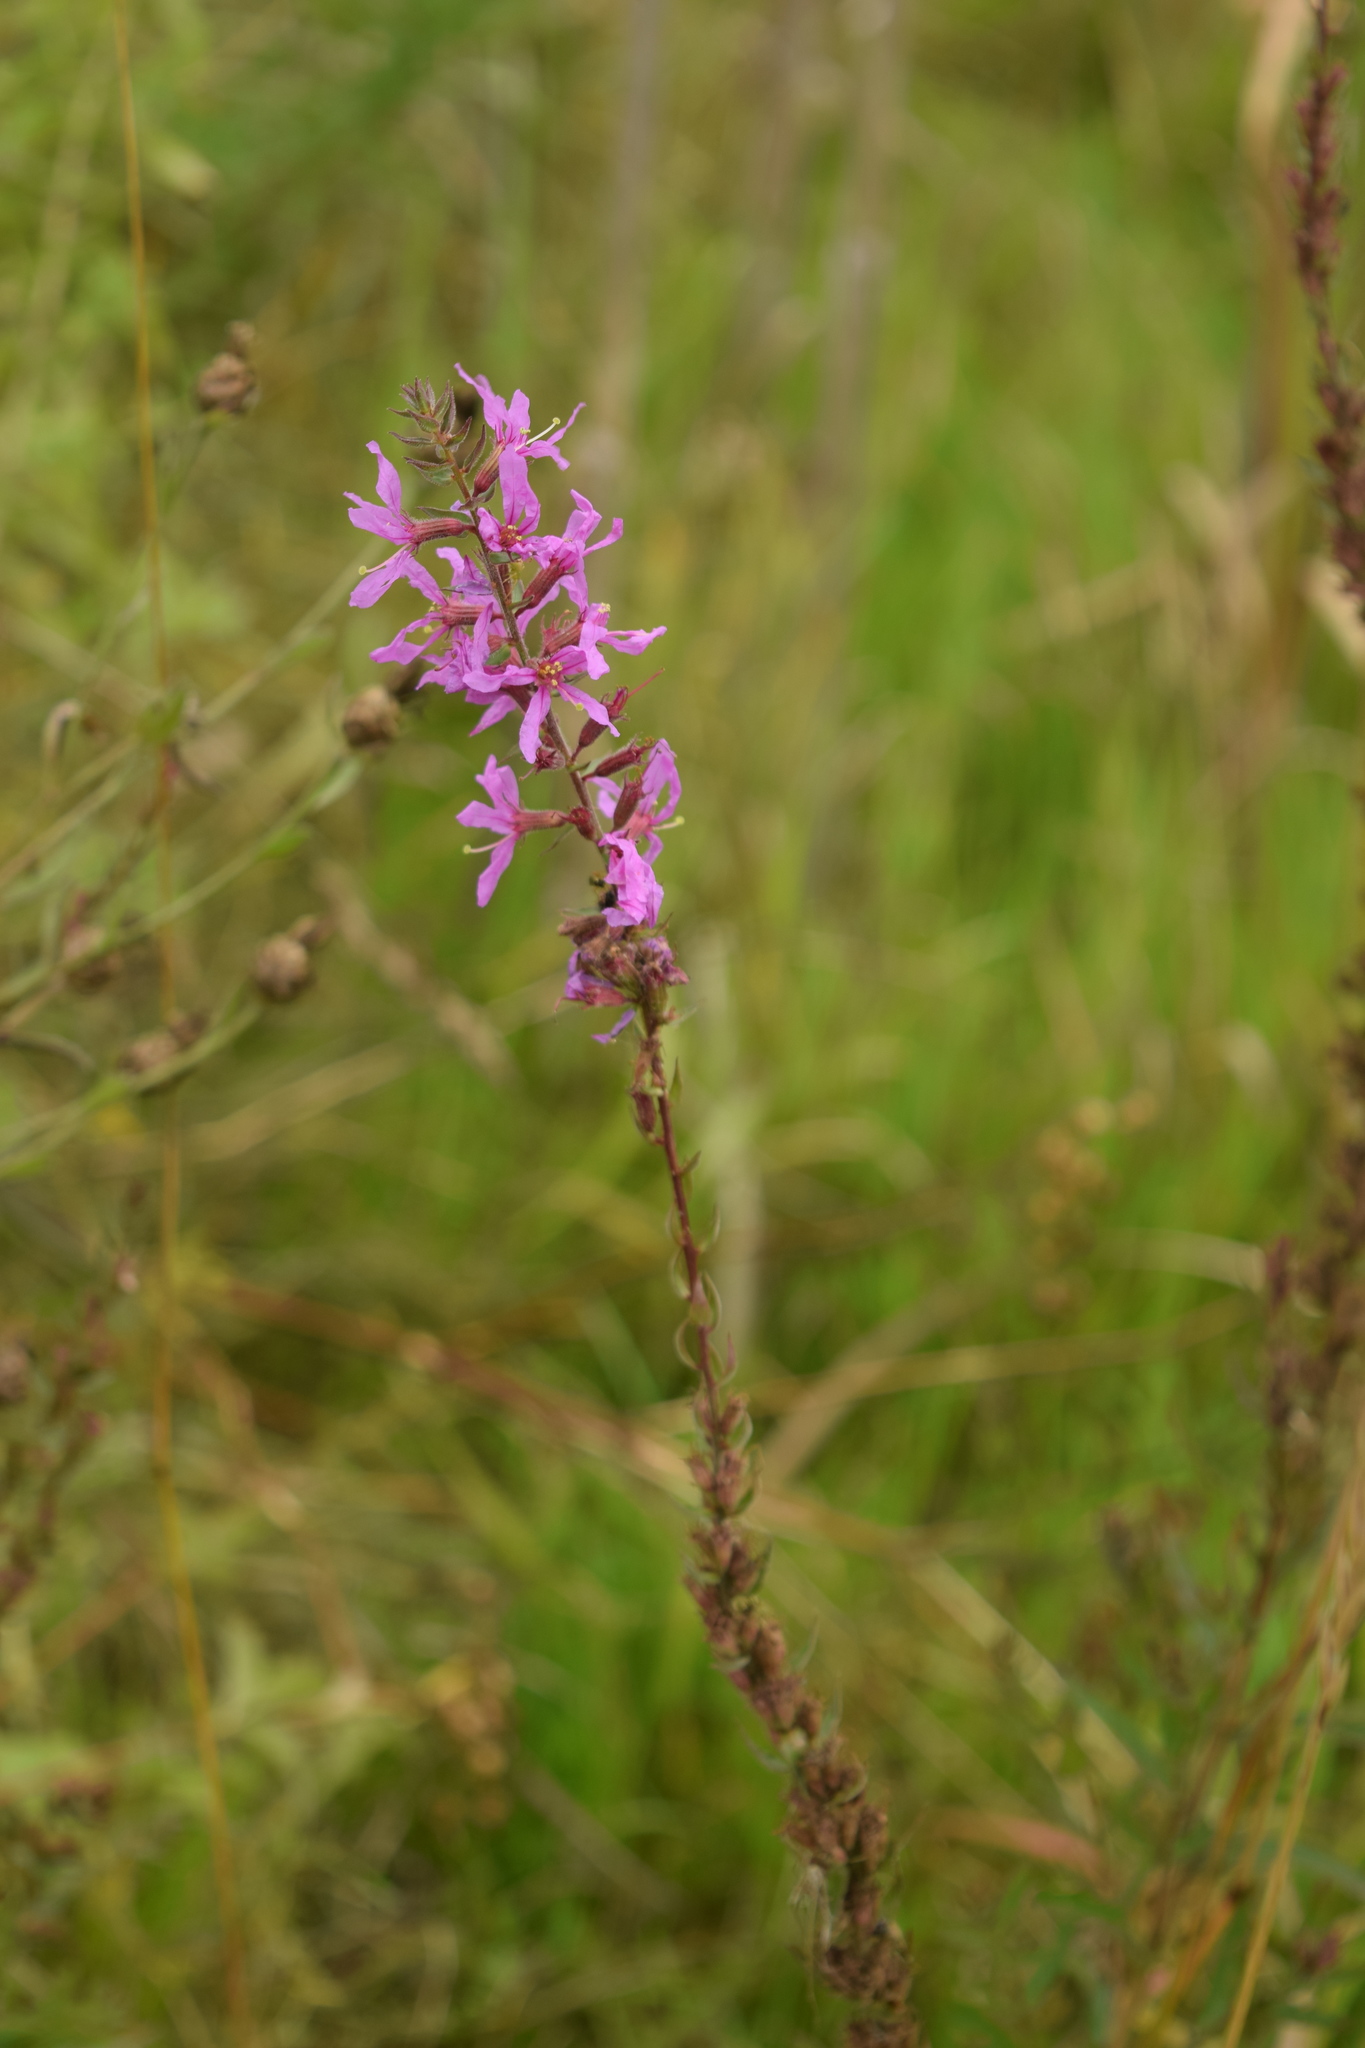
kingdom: Plantae
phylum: Tracheophyta
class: Magnoliopsida
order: Myrtales
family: Lythraceae
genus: Lythrum
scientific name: Lythrum salicaria
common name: Purple loosestrife
